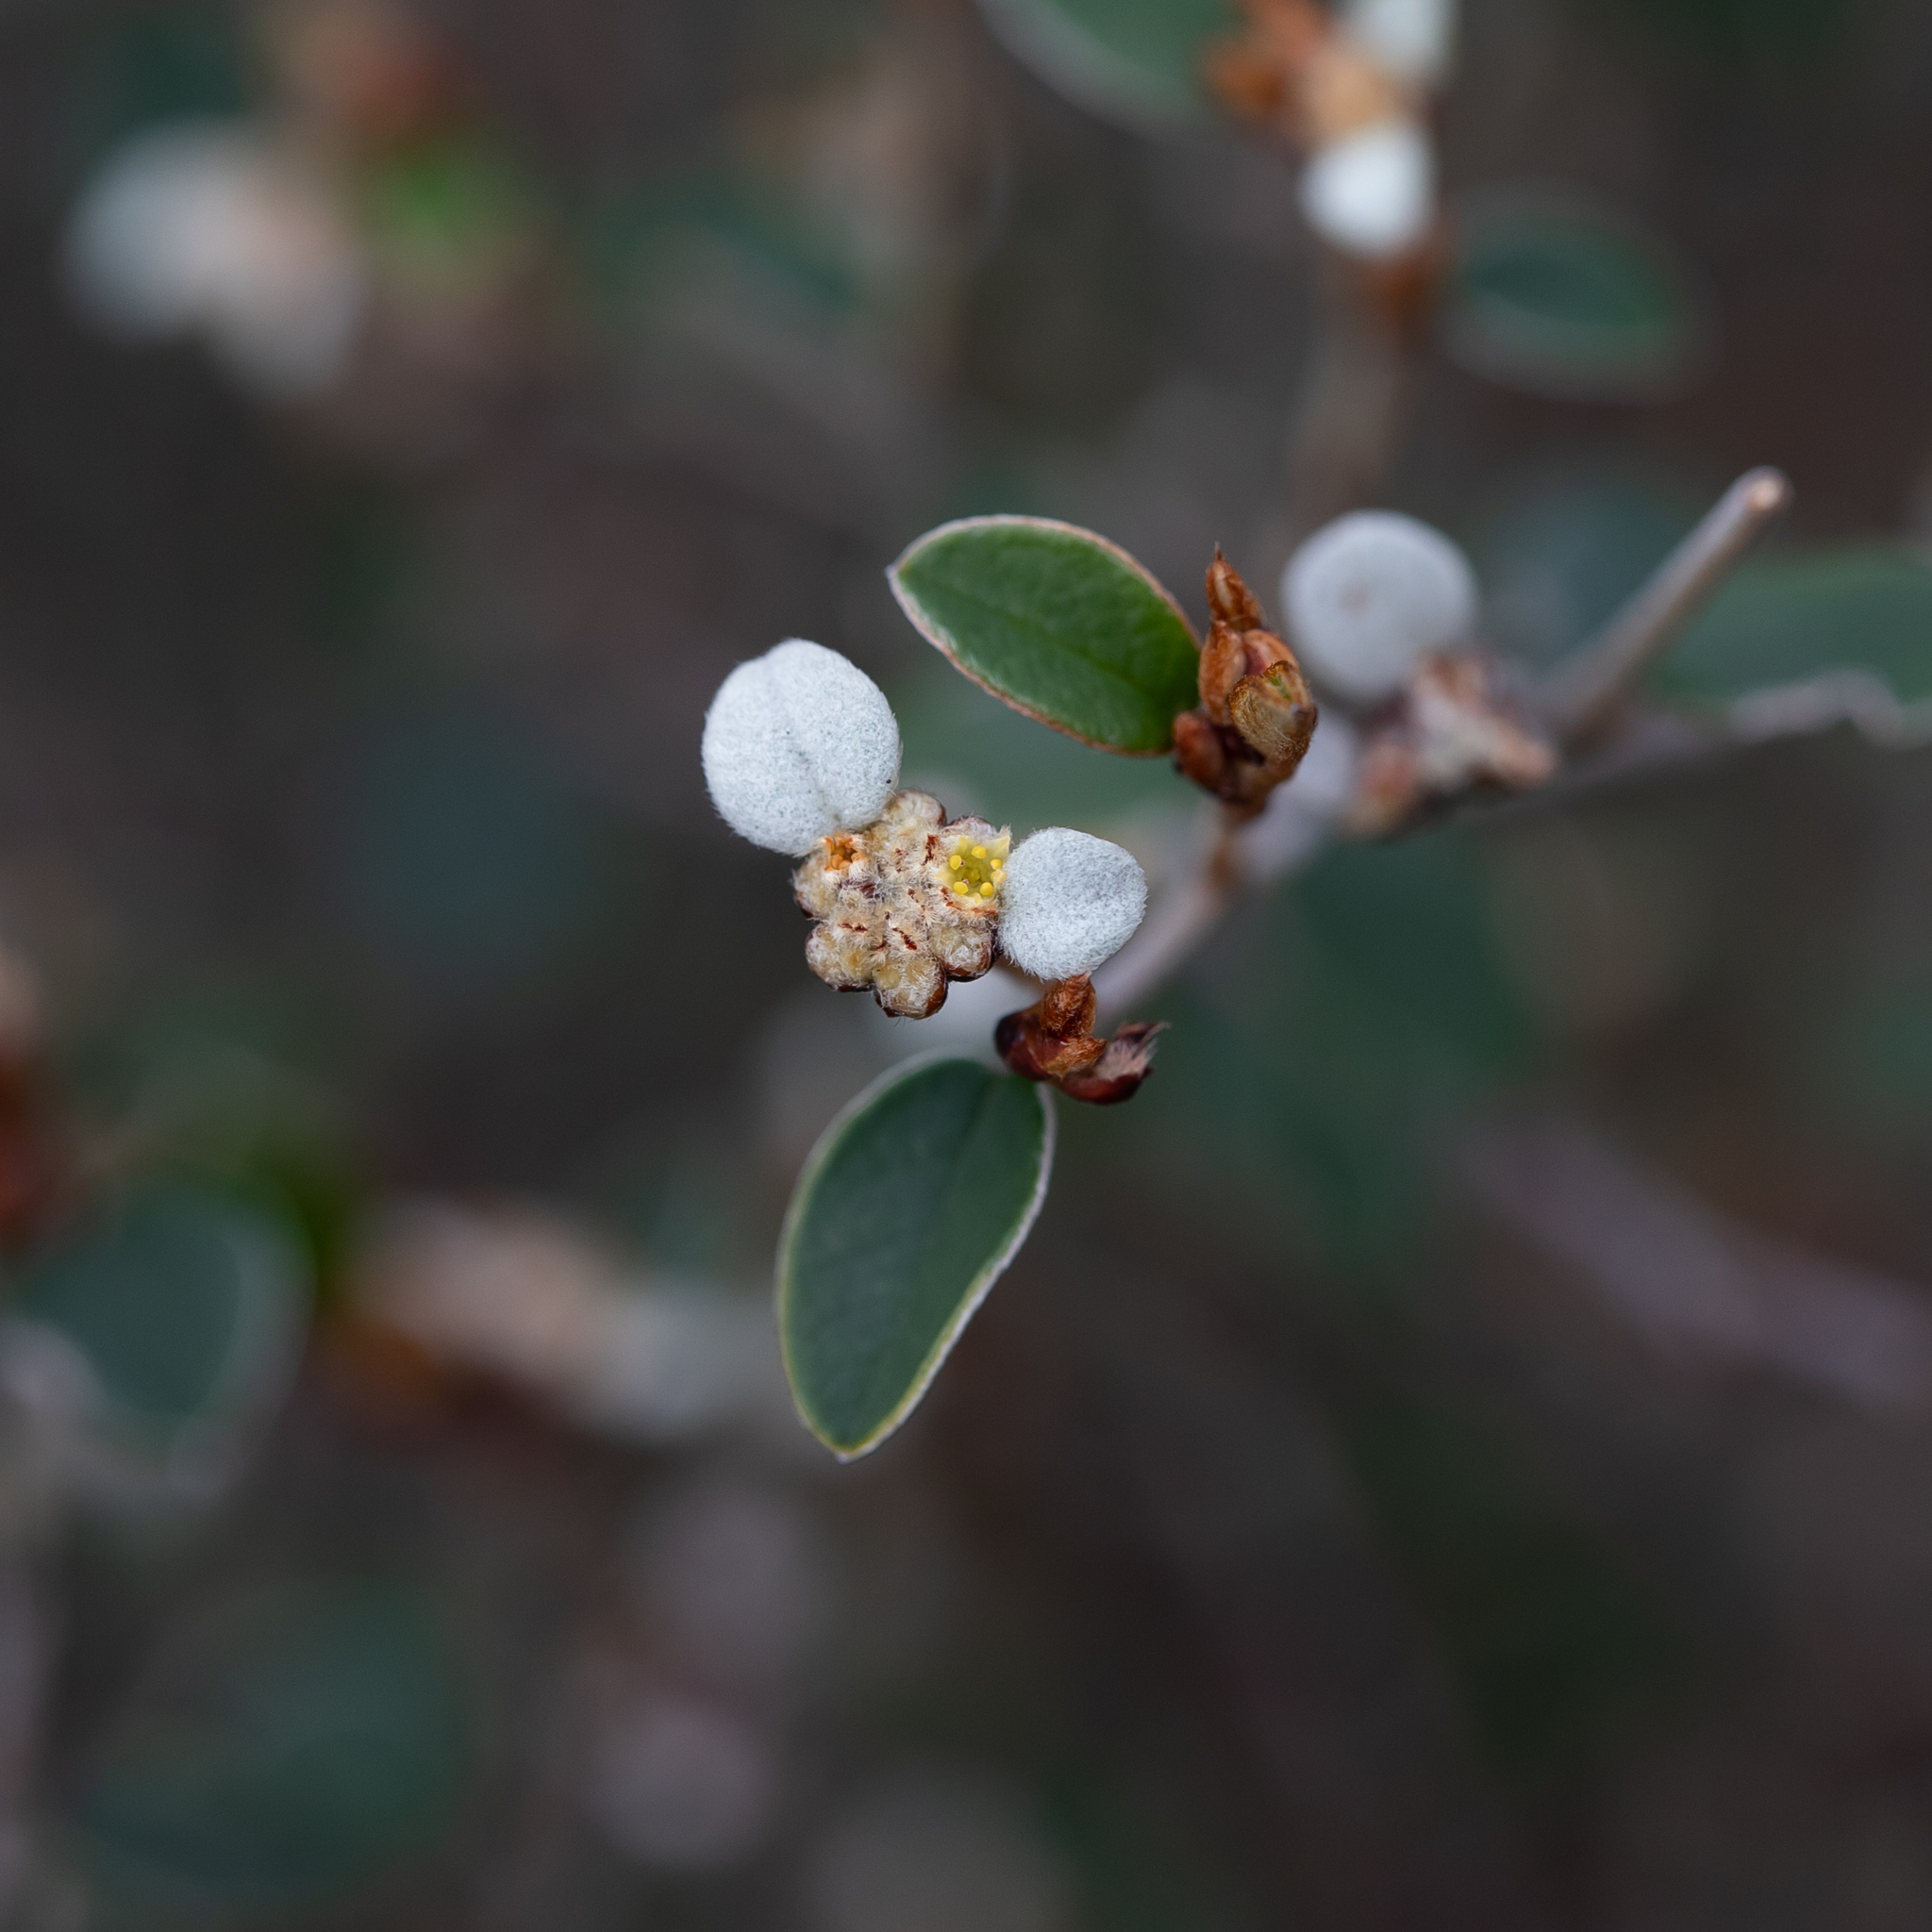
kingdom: Plantae
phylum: Tracheophyta
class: Magnoliopsida
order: Rosales
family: Rhamnaceae
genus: Spyridium
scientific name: Spyridium thymifolium
